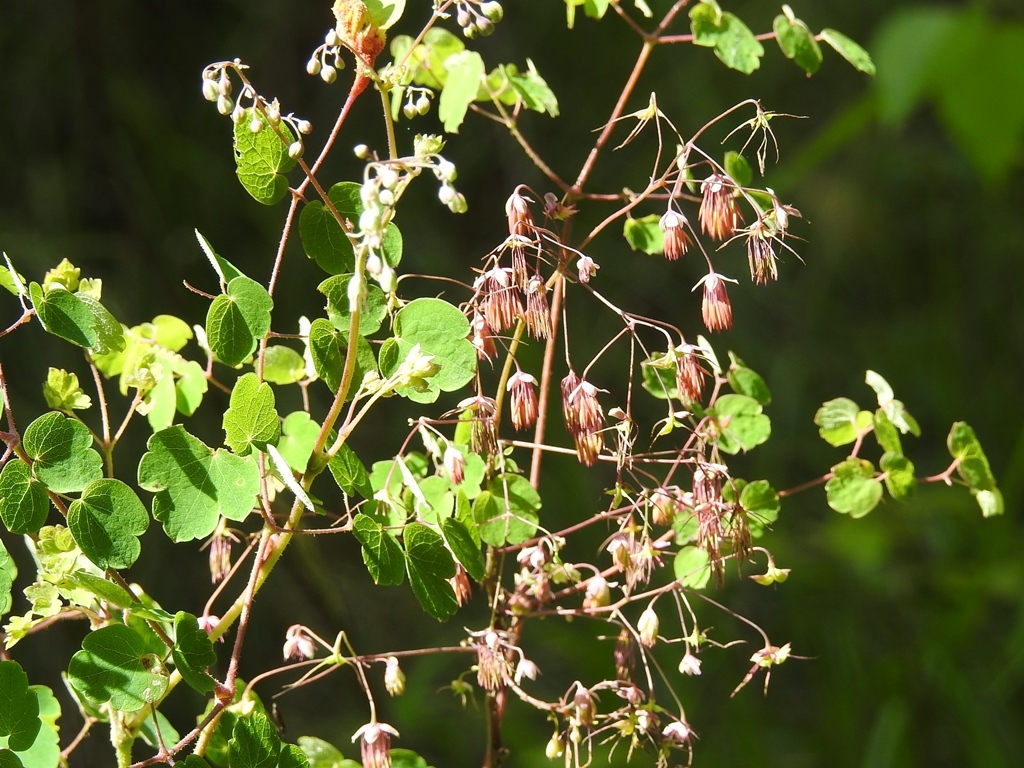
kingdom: Plantae
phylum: Tracheophyta
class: Magnoliopsida
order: Ranunculales
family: Ranunculaceae
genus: Thalictrum
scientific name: Thalictrum guatemalense
